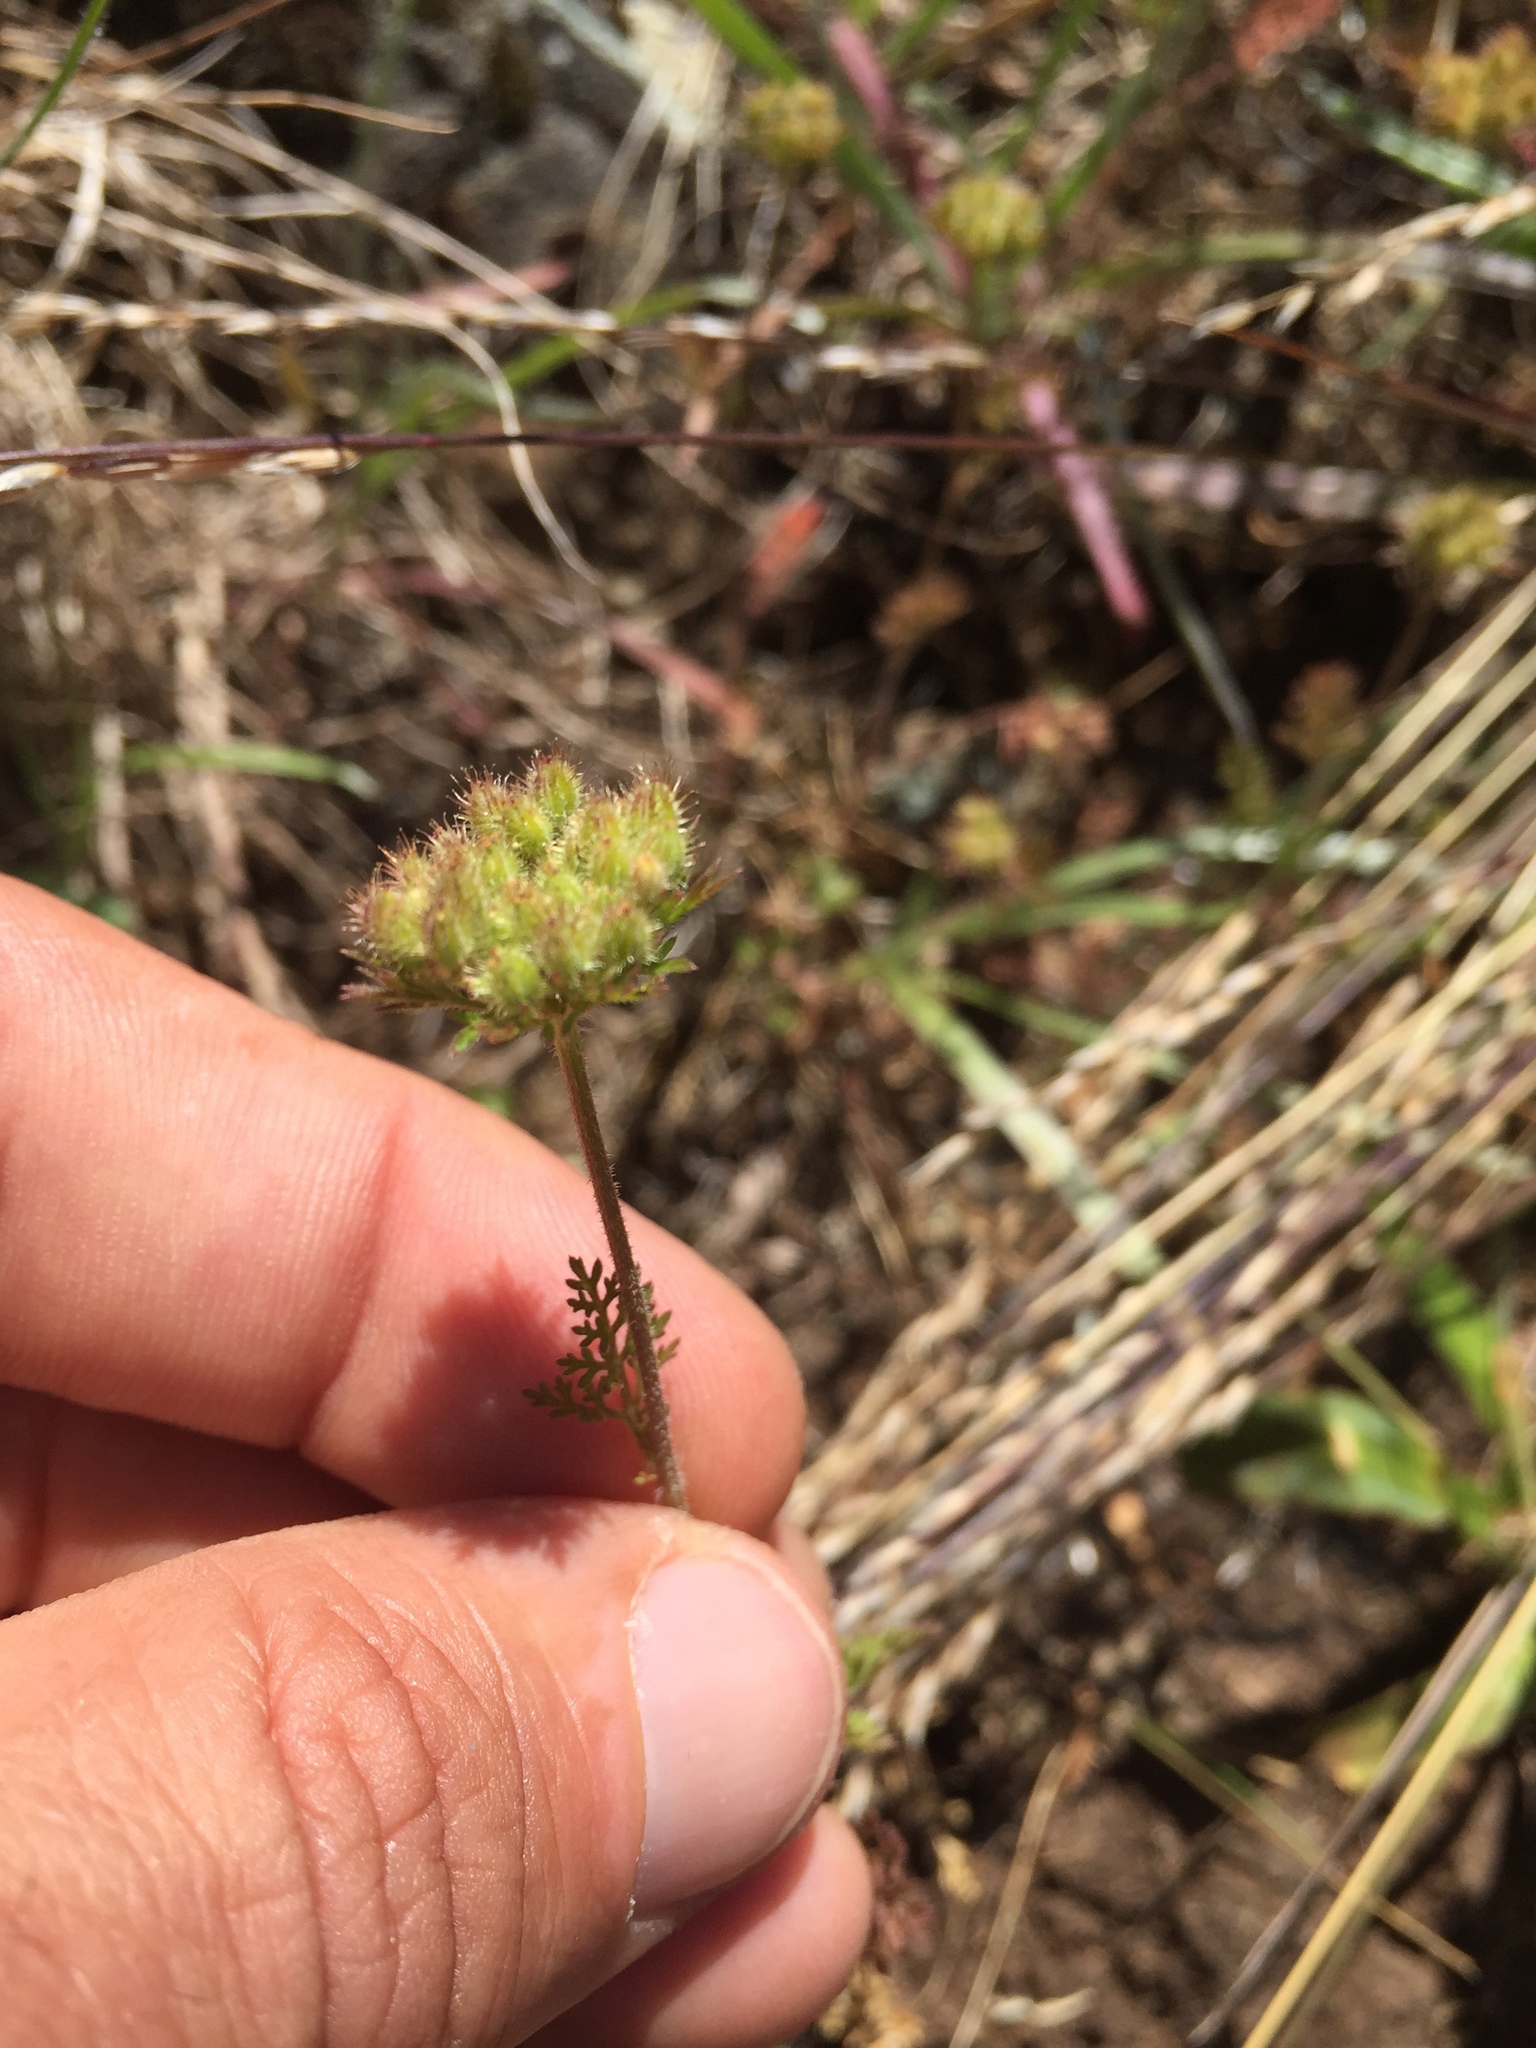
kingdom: Plantae
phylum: Tracheophyta
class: Magnoliopsida
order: Apiales
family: Apiaceae
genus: Daucus
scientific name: Daucus pusillus
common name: Southwest wild carrot
